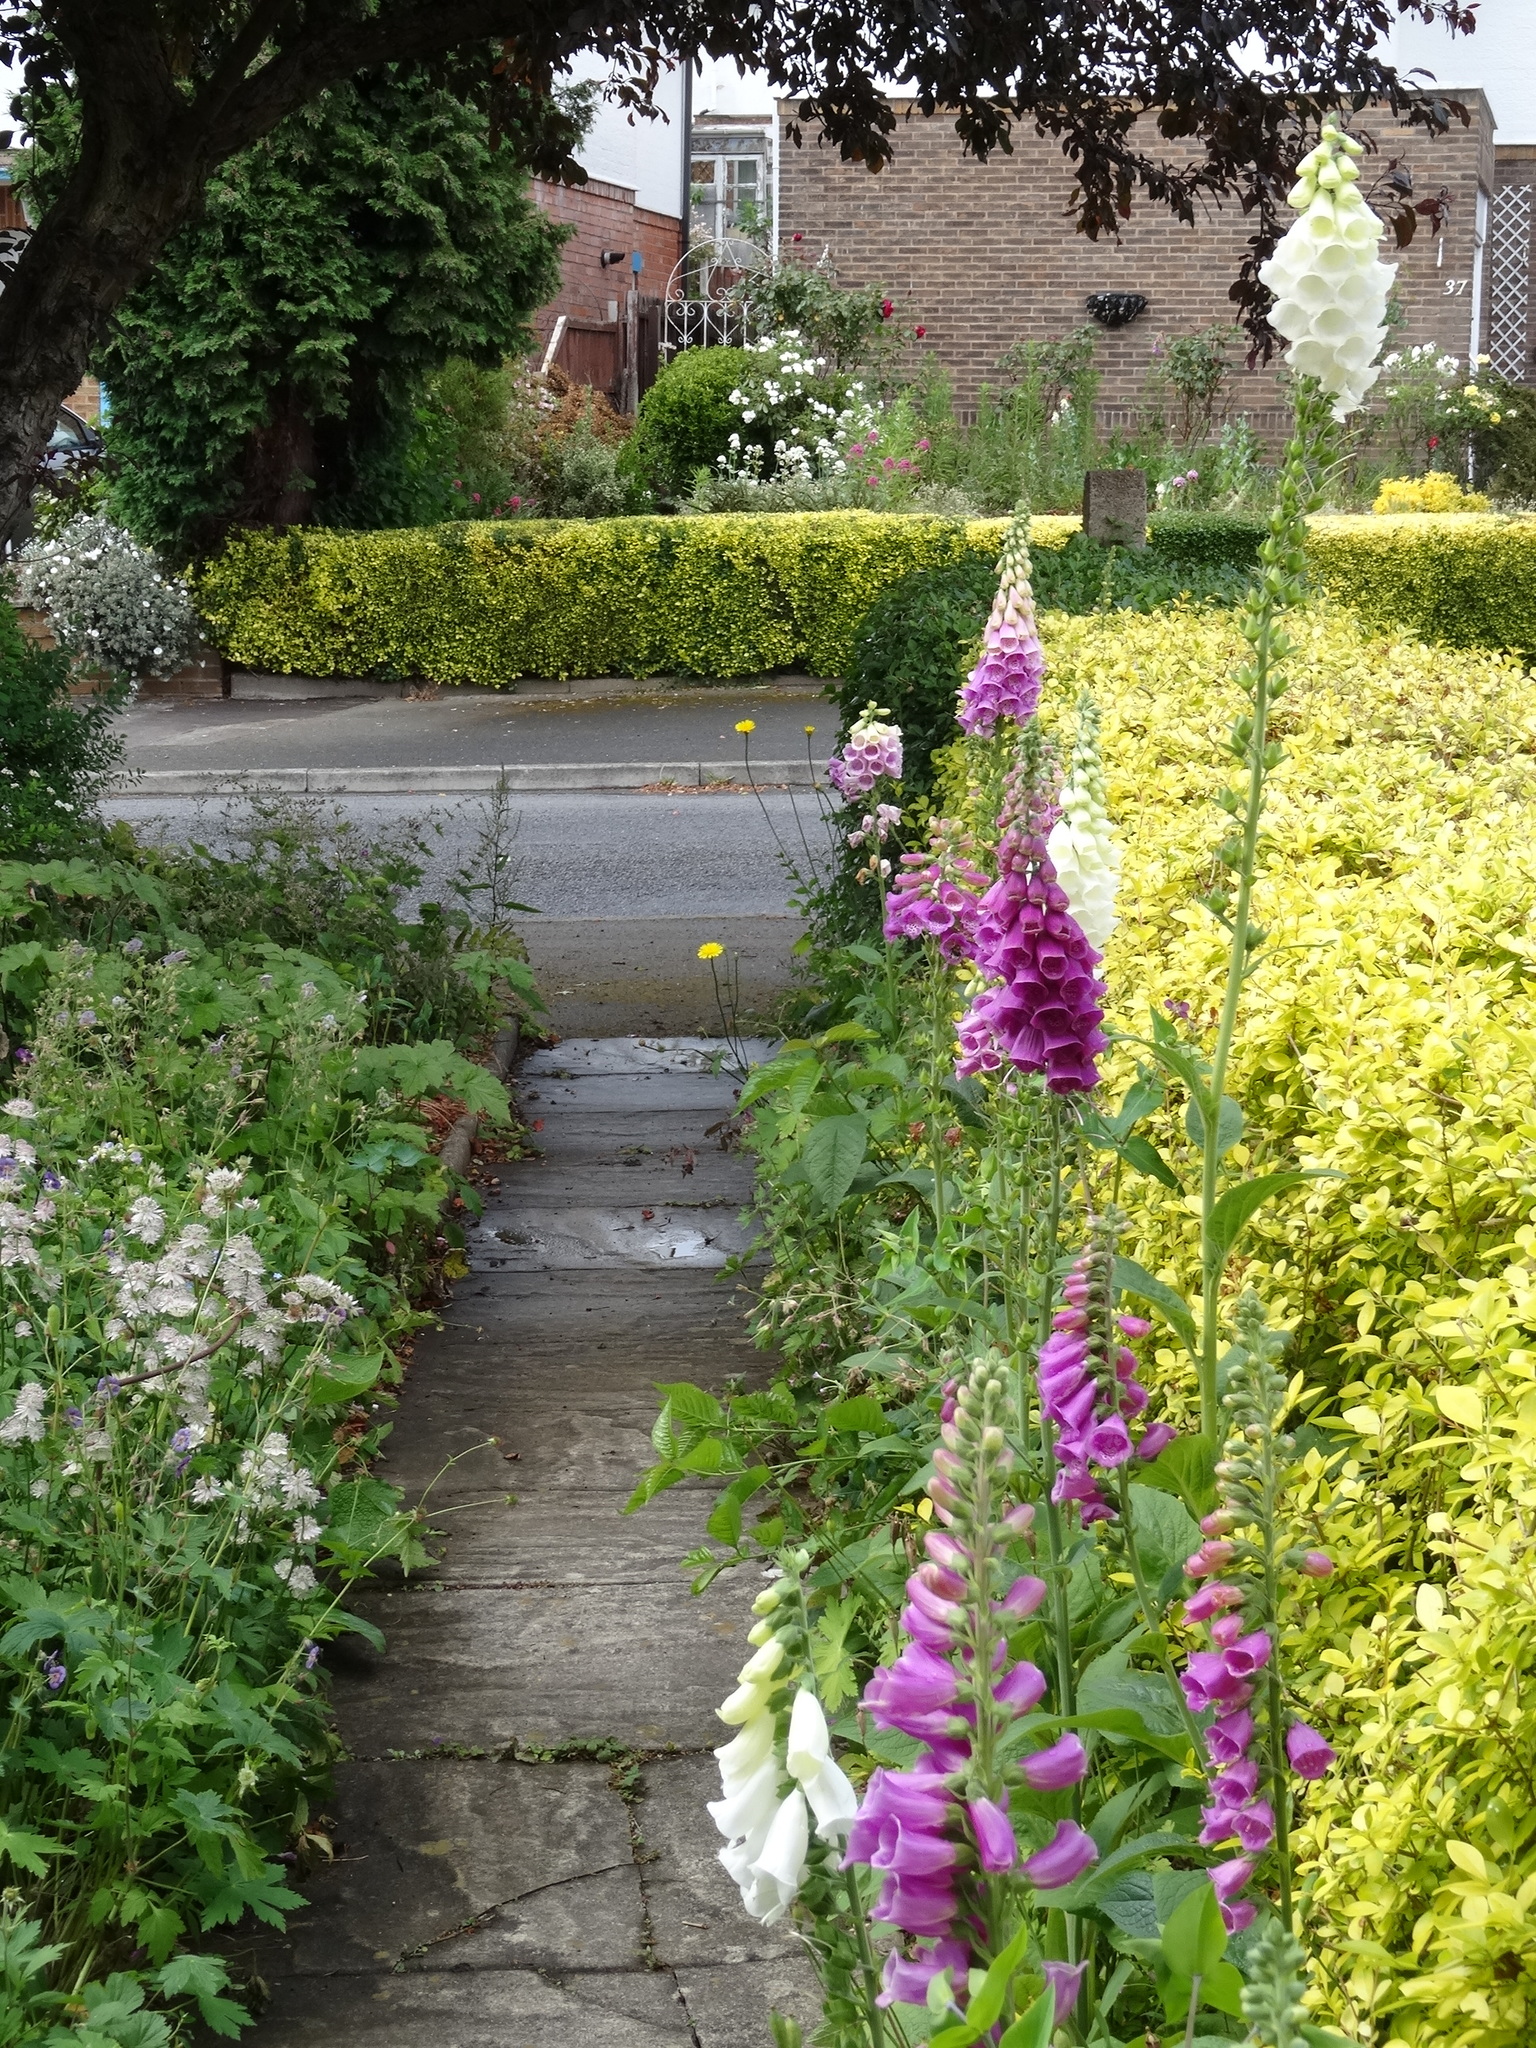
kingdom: Plantae
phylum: Tracheophyta
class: Magnoliopsida
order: Lamiales
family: Plantaginaceae
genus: Digitalis
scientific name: Digitalis purpurea
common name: Foxglove
